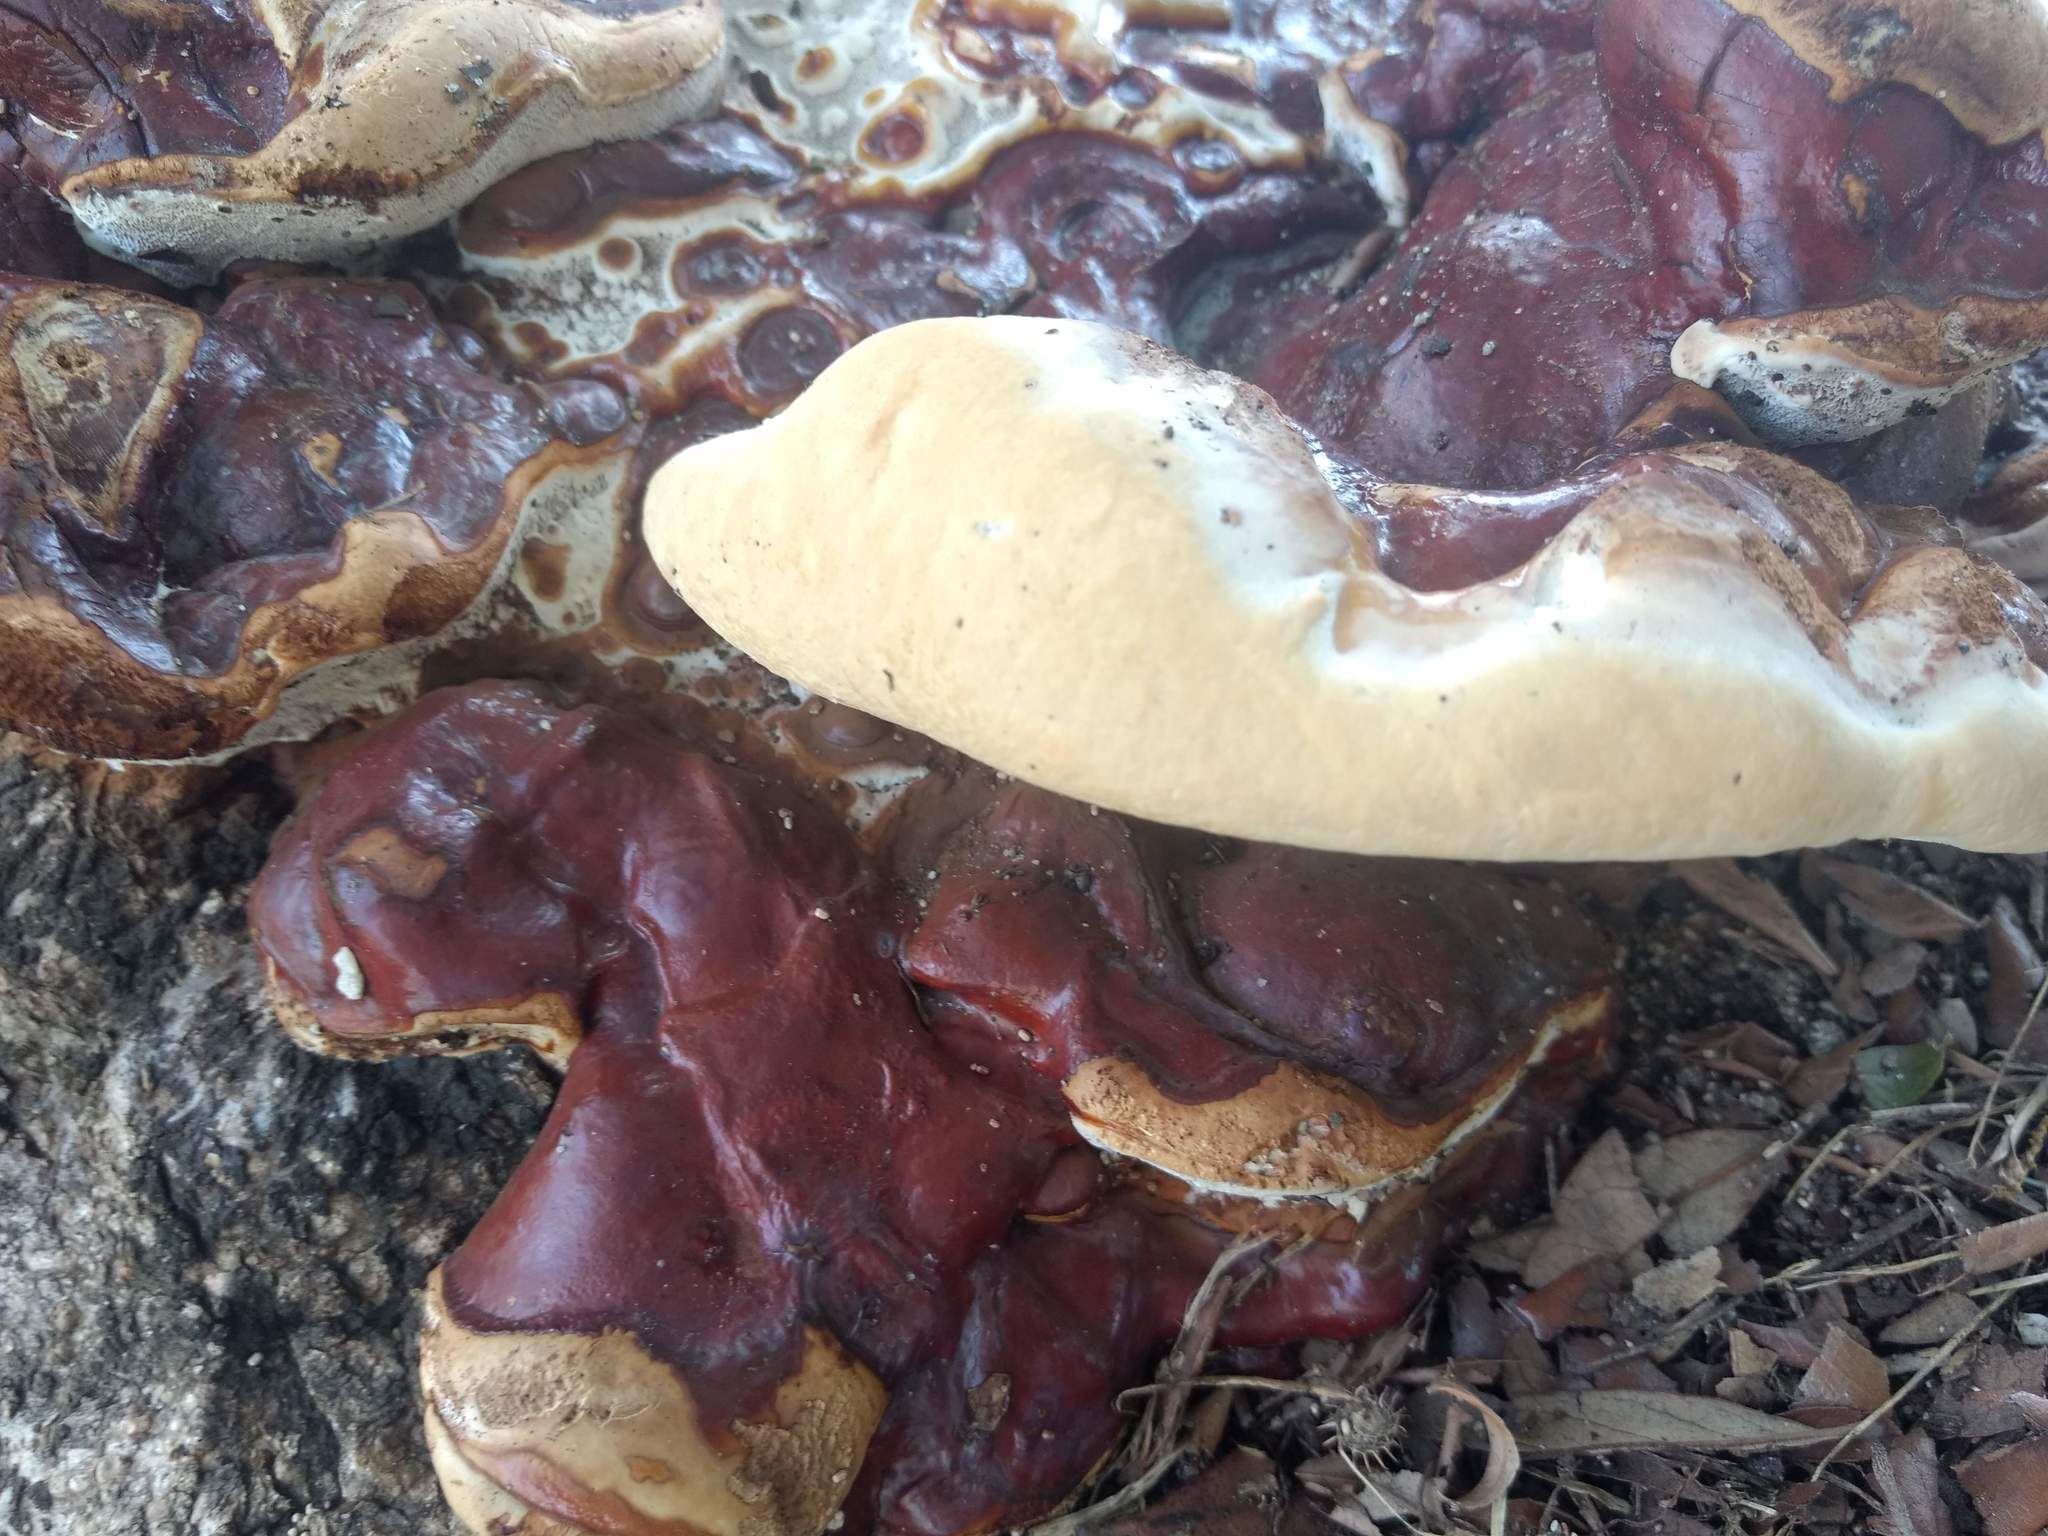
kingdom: Fungi
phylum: Basidiomycota
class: Agaricomycetes
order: Polyporales
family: Polyporaceae
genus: Ganoderma
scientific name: Ganoderma polychromum
